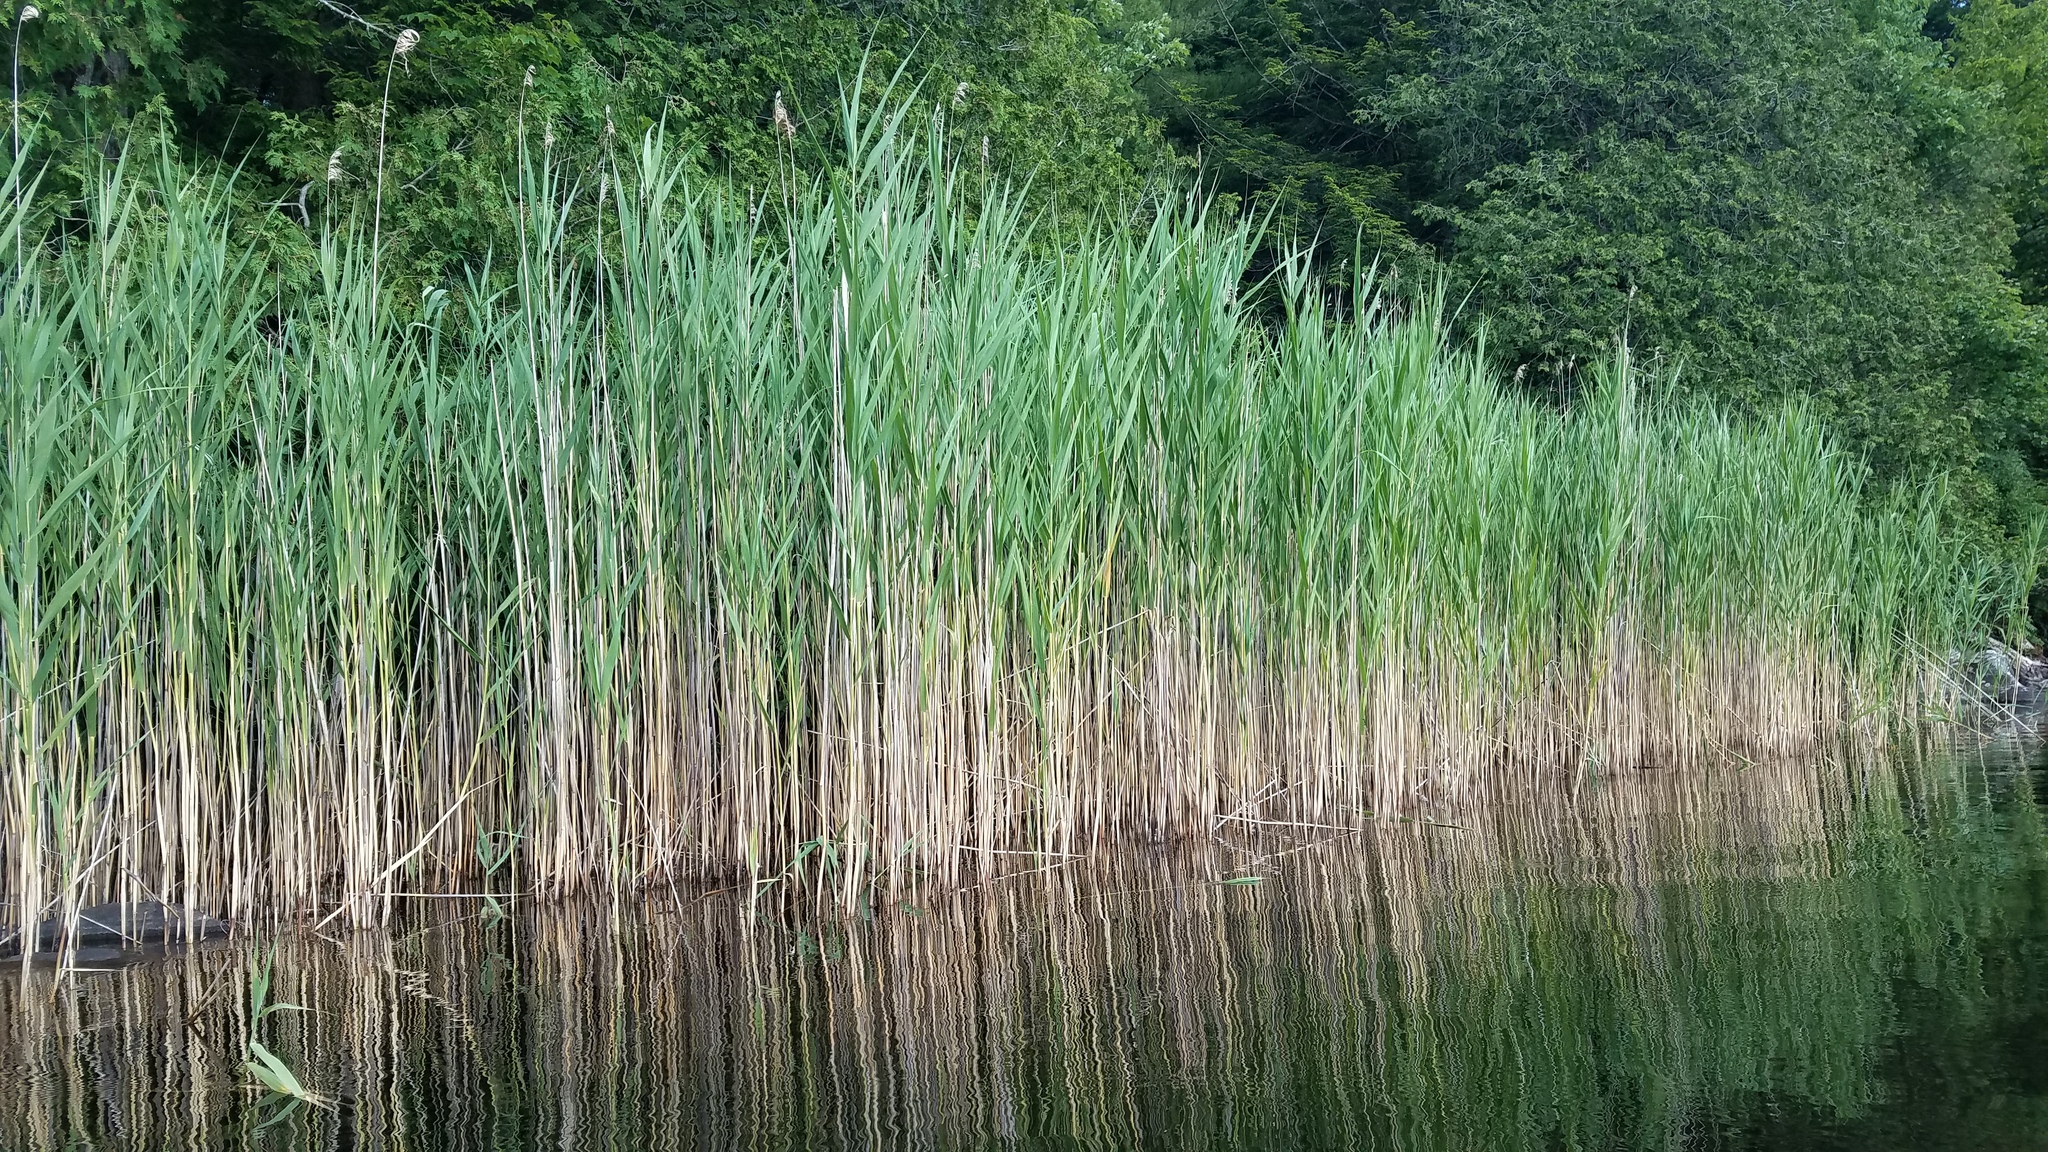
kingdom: Plantae
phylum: Tracheophyta
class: Liliopsida
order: Poales
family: Poaceae
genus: Phragmites
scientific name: Phragmites australis
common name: Common reed
